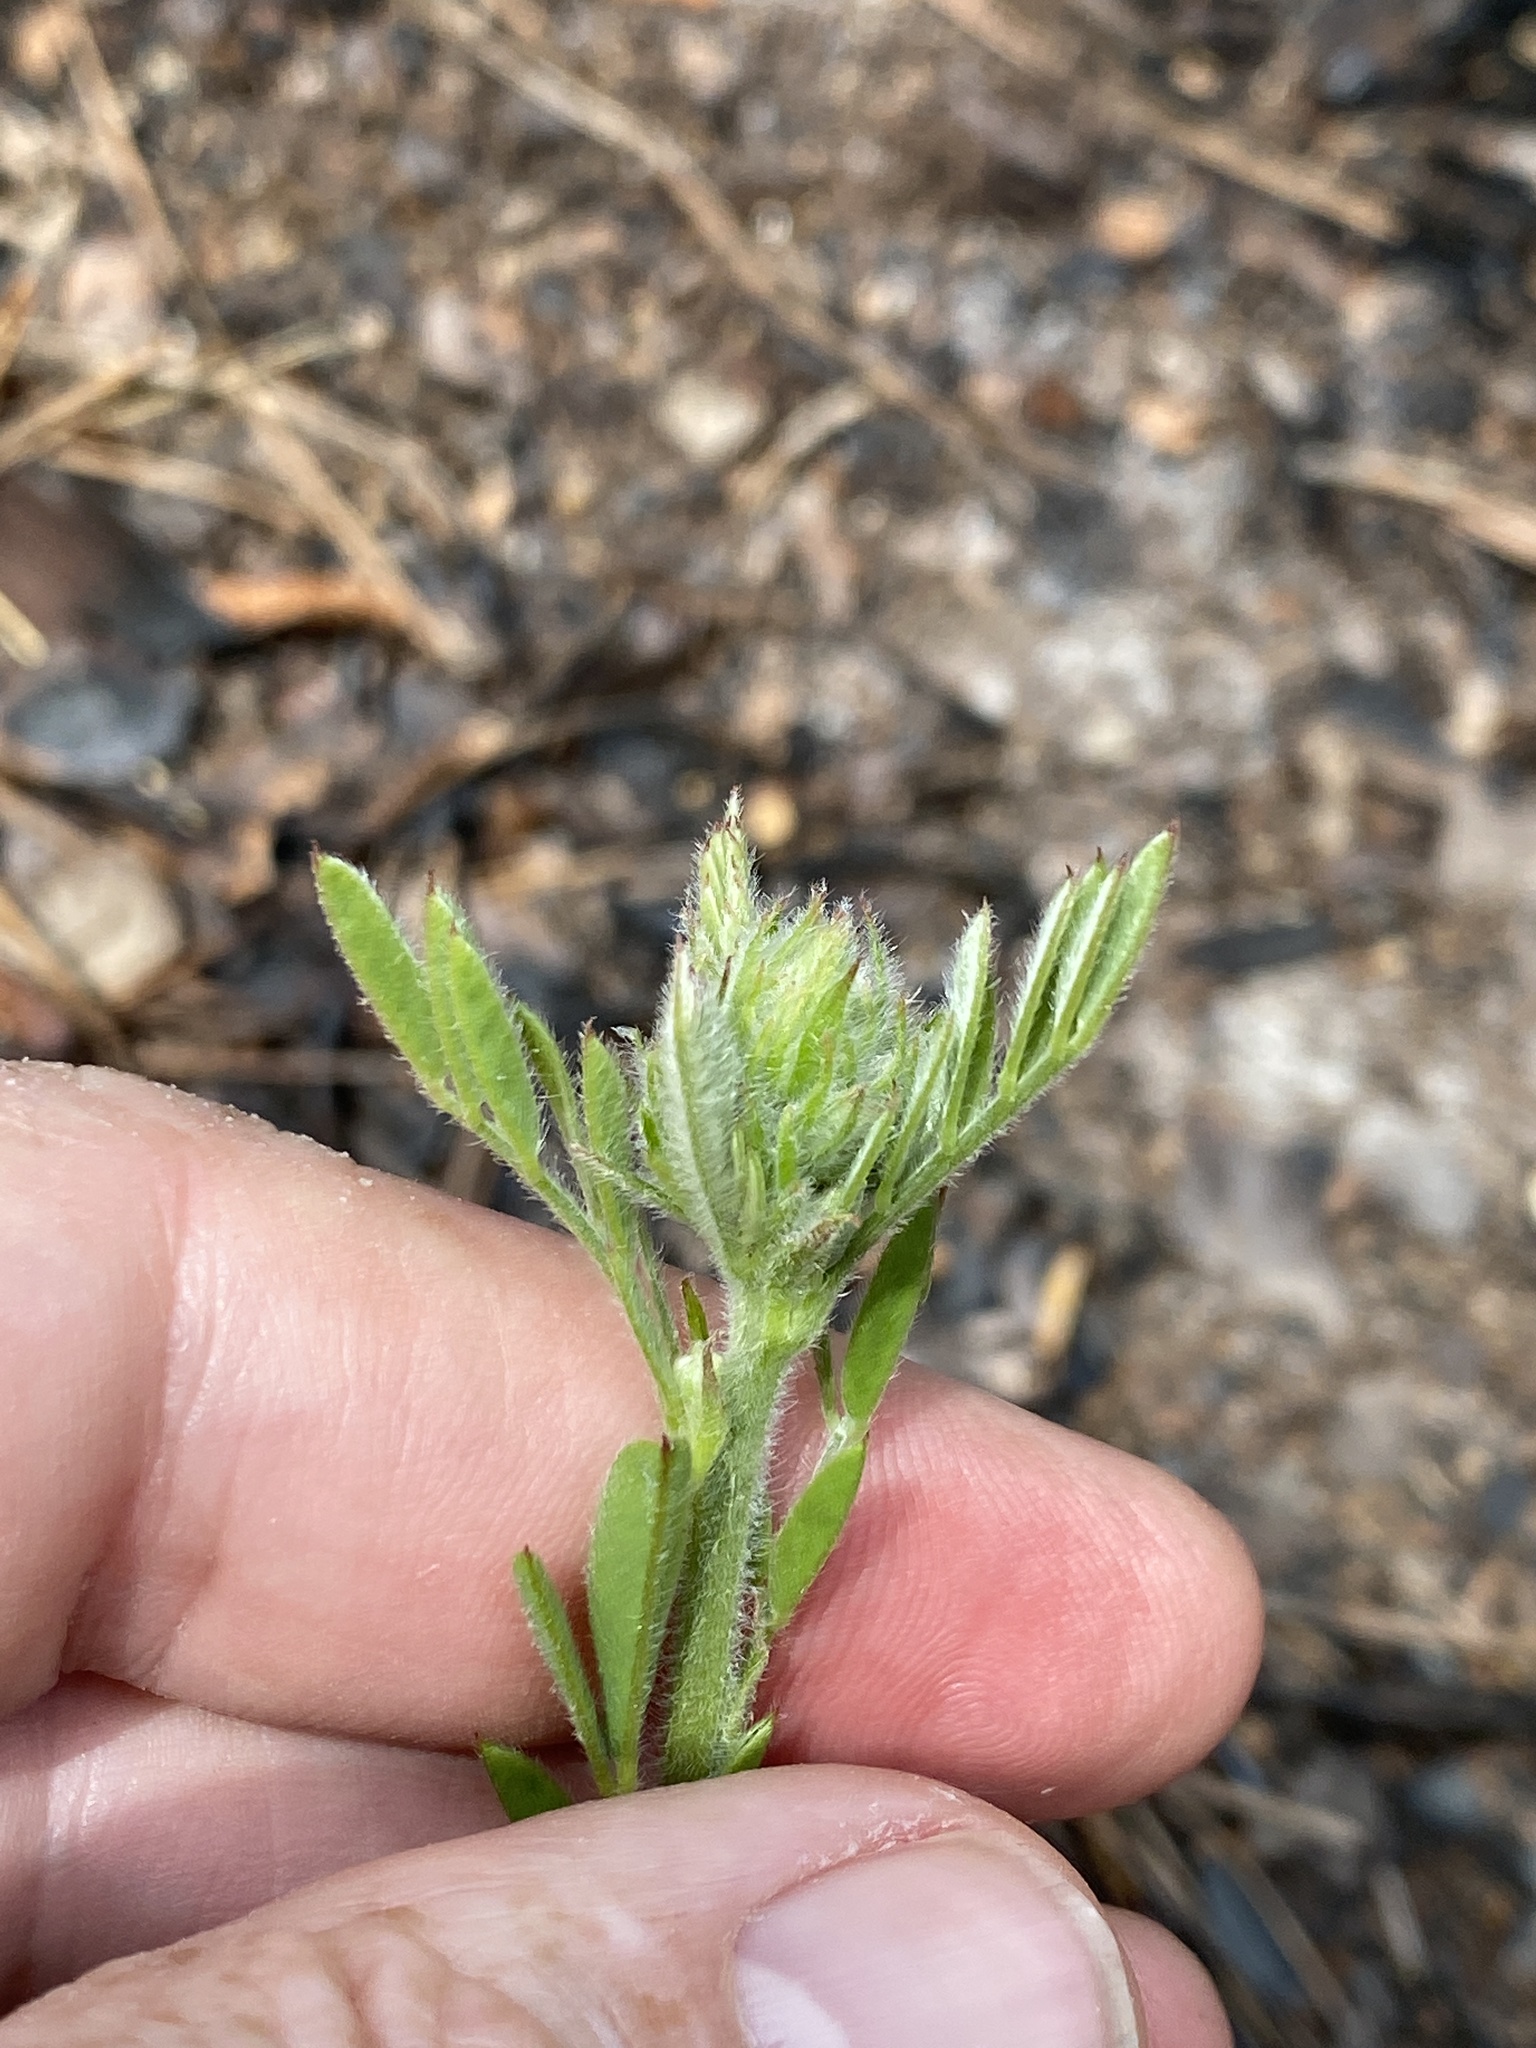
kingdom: Plantae
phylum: Tracheophyta
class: Magnoliopsida
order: Fabales
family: Fabaceae
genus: Tephrosia
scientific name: Tephrosia virginiana
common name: Rabbit-pea
